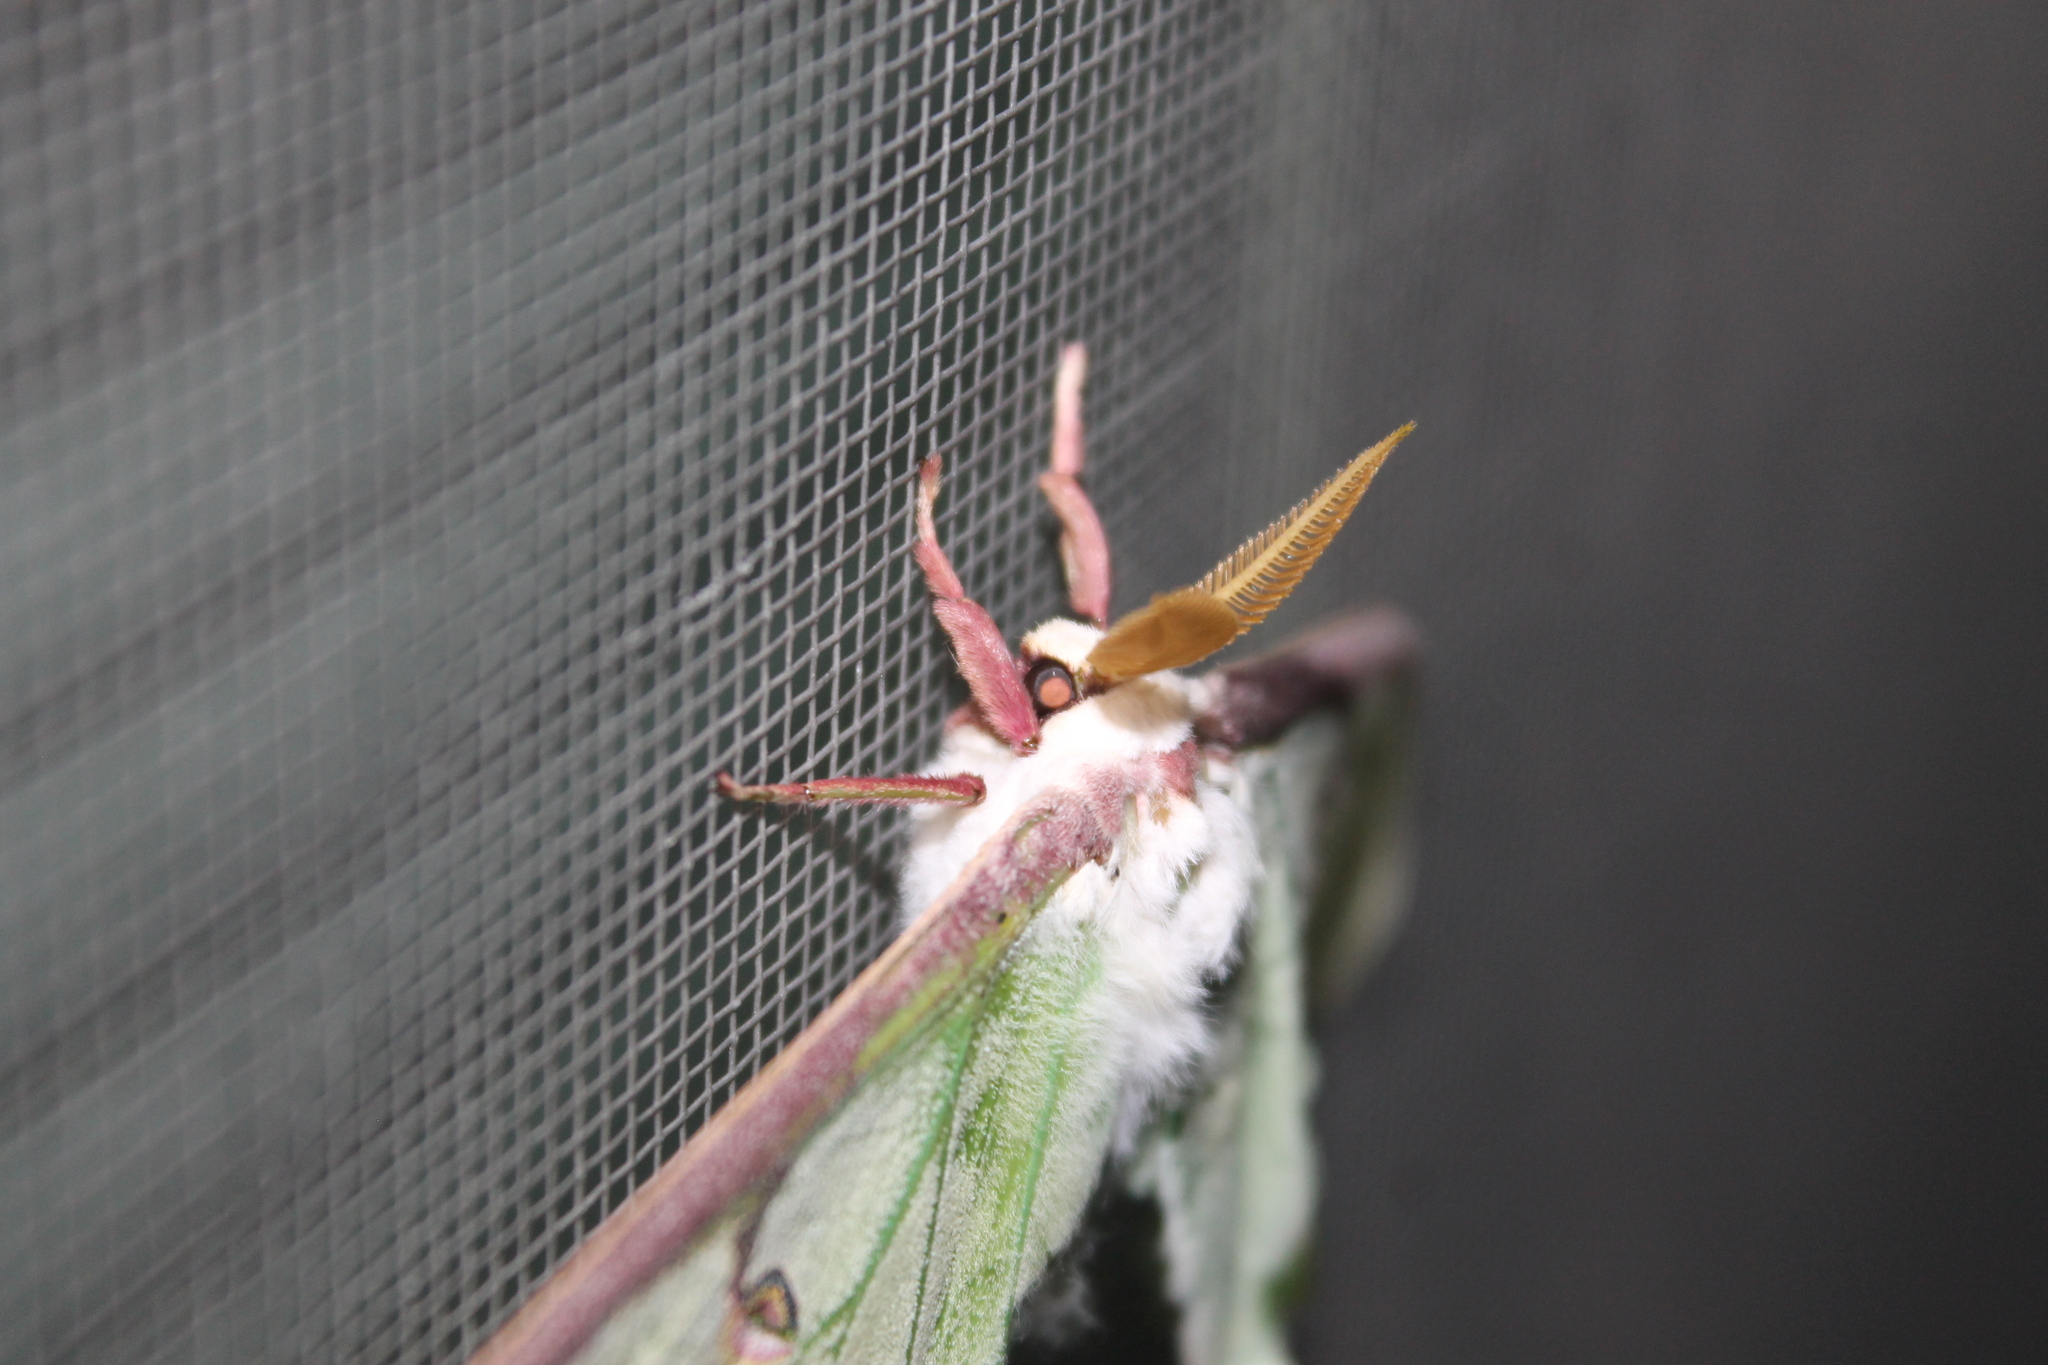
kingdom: Animalia
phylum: Arthropoda
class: Insecta
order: Lepidoptera
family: Saturniidae
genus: Actias
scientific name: Actias luna
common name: Luna moth
